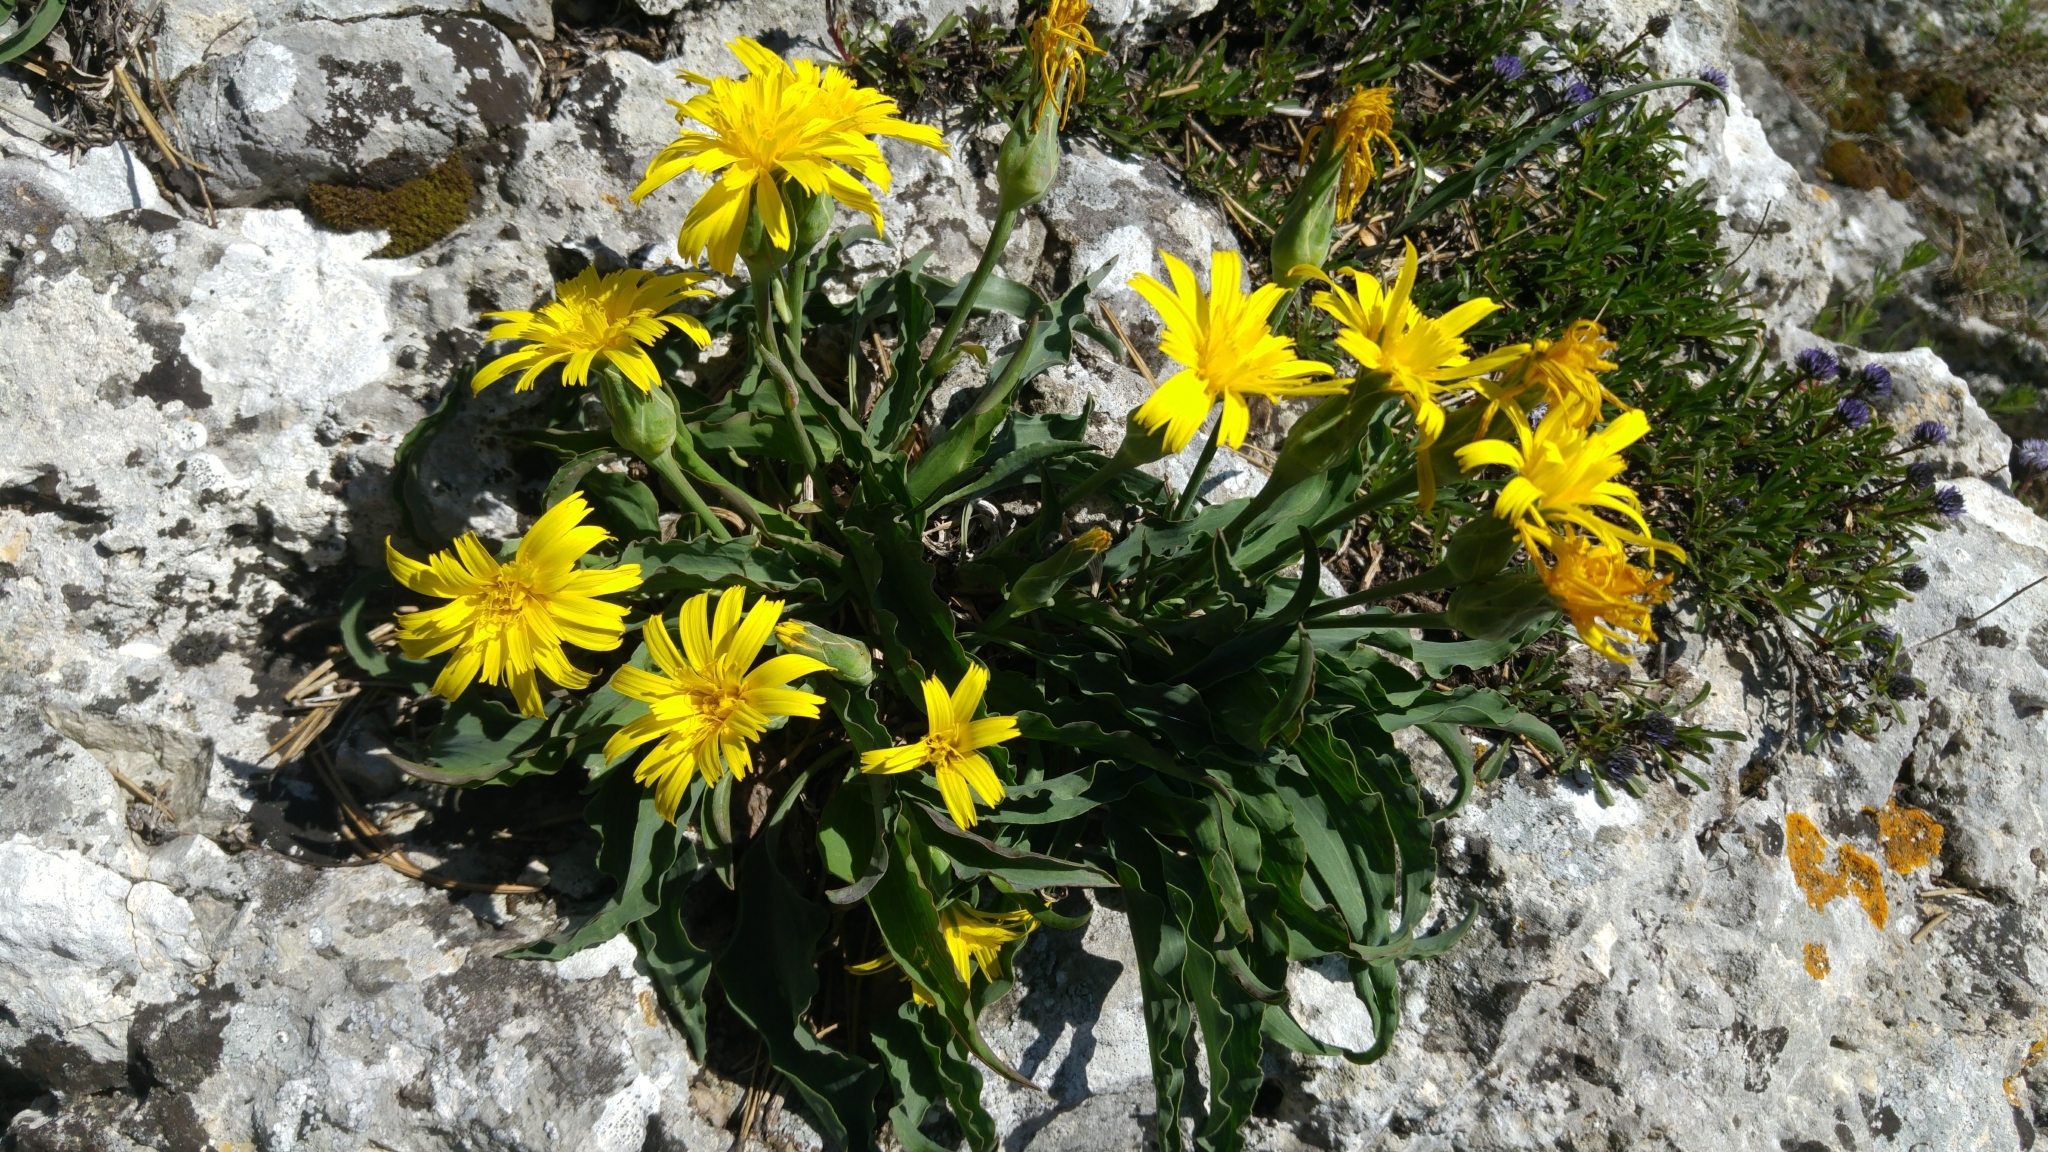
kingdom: Plantae
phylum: Tracheophyta
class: Magnoliopsida
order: Asterales
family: Asteraceae
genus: Takhtajaniantha
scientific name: Takhtajaniantha austriaca
